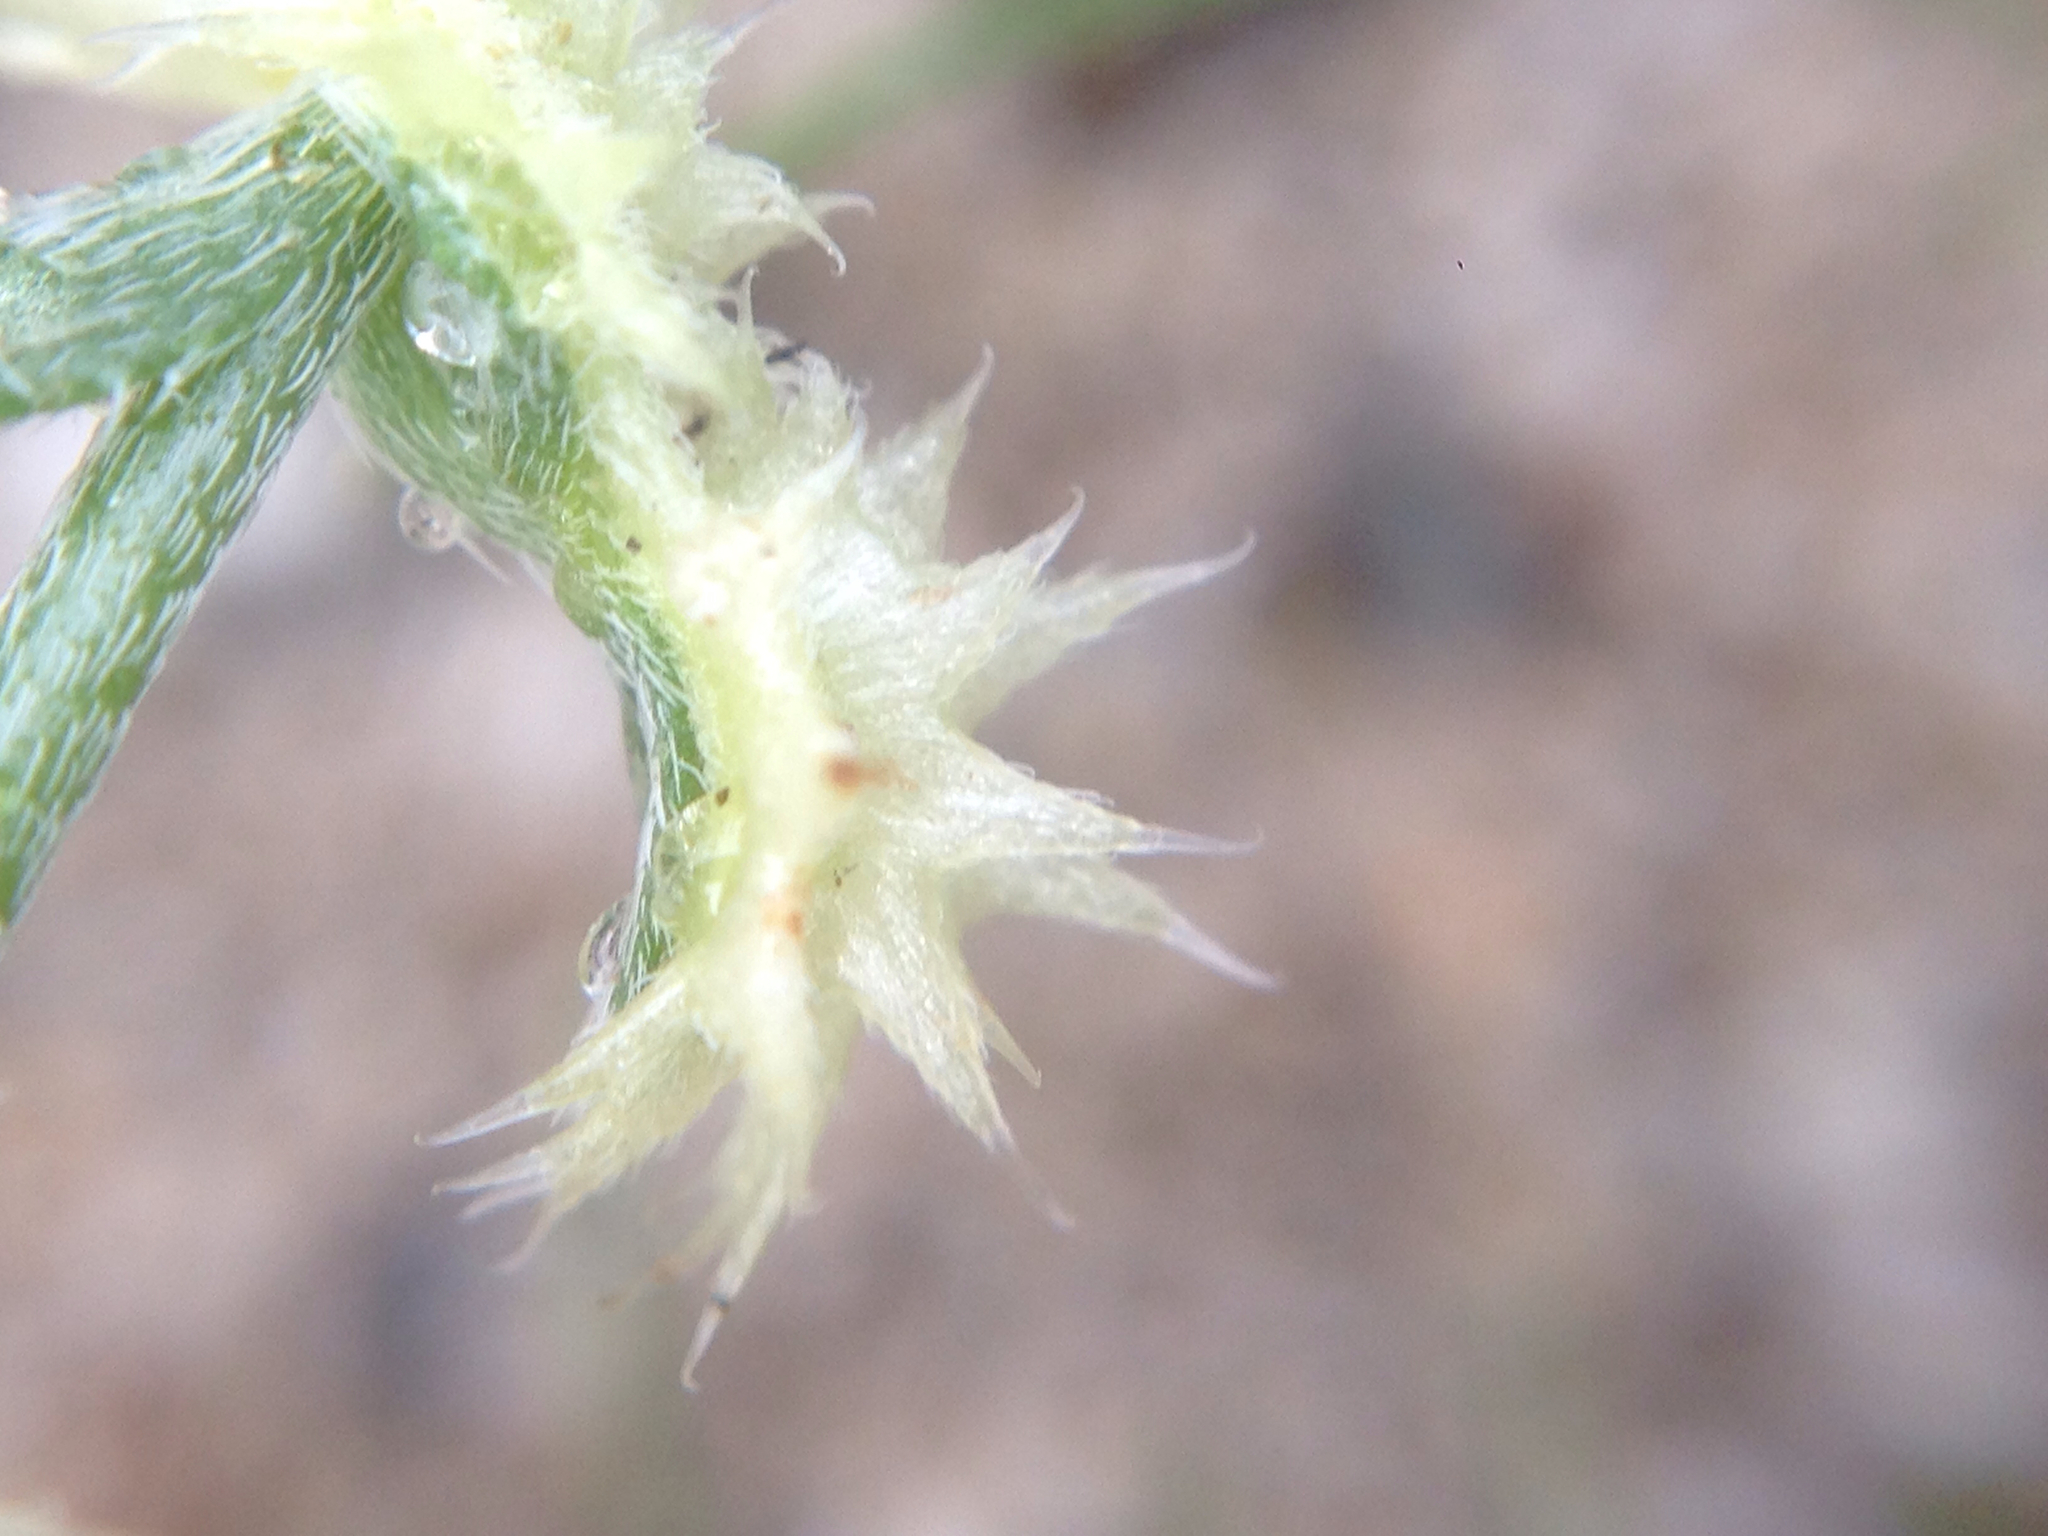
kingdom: Plantae
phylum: Tracheophyta
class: Magnoliopsida
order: Boraginales
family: Boraginaceae
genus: Pectocarya
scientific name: Pectocarya platycarpa
